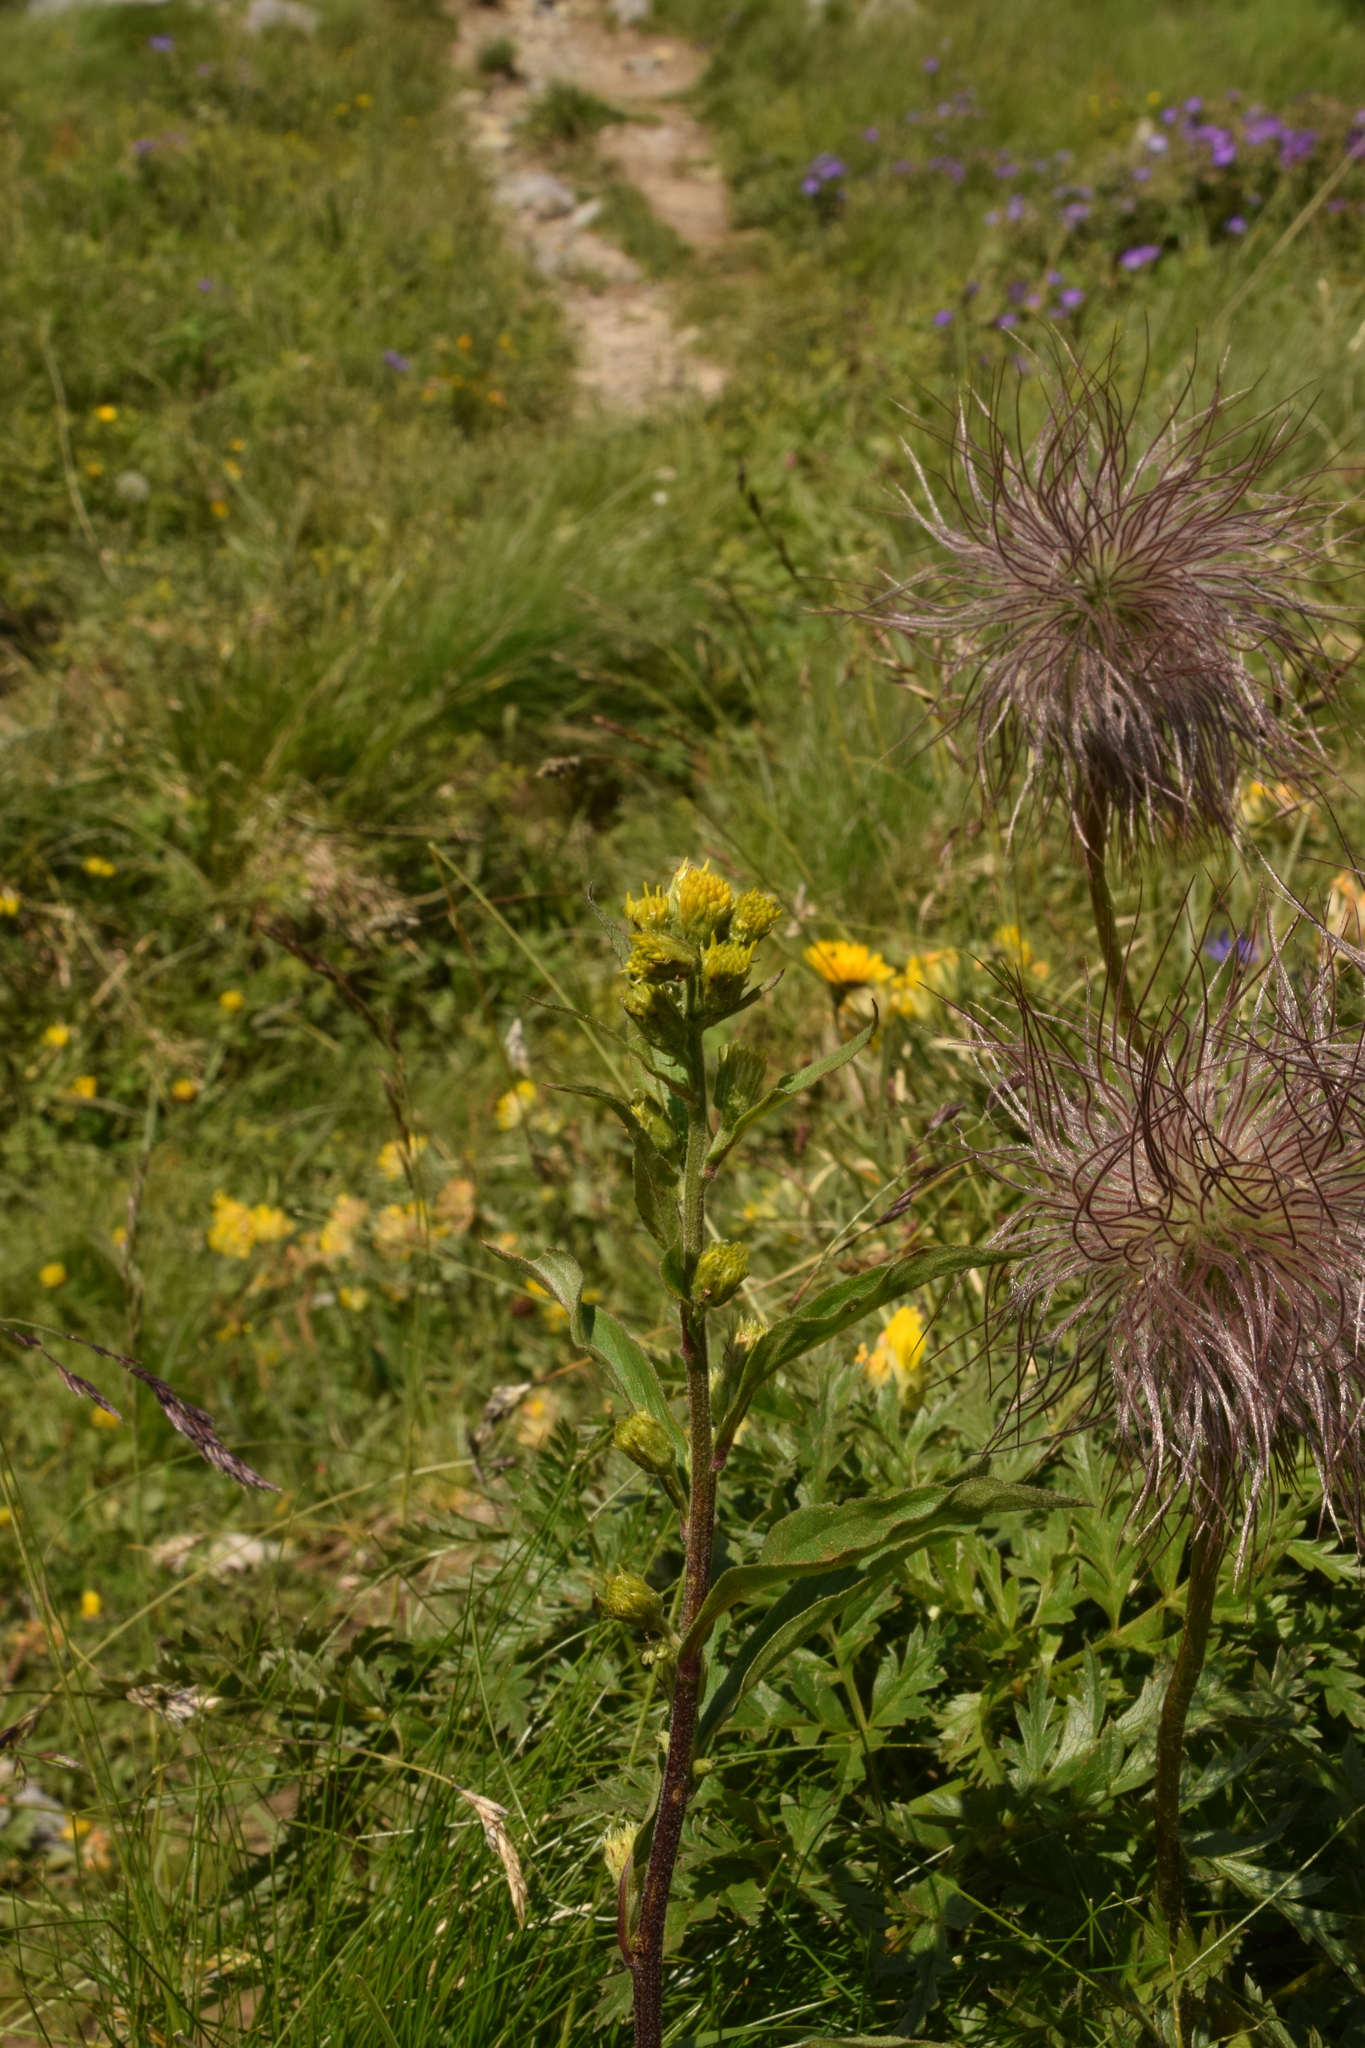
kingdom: Plantae
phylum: Tracheophyta
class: Magnoliopsida
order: Asterales
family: Asteraceae
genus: Solidago
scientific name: Solidago virgaurea
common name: Goldenrod
